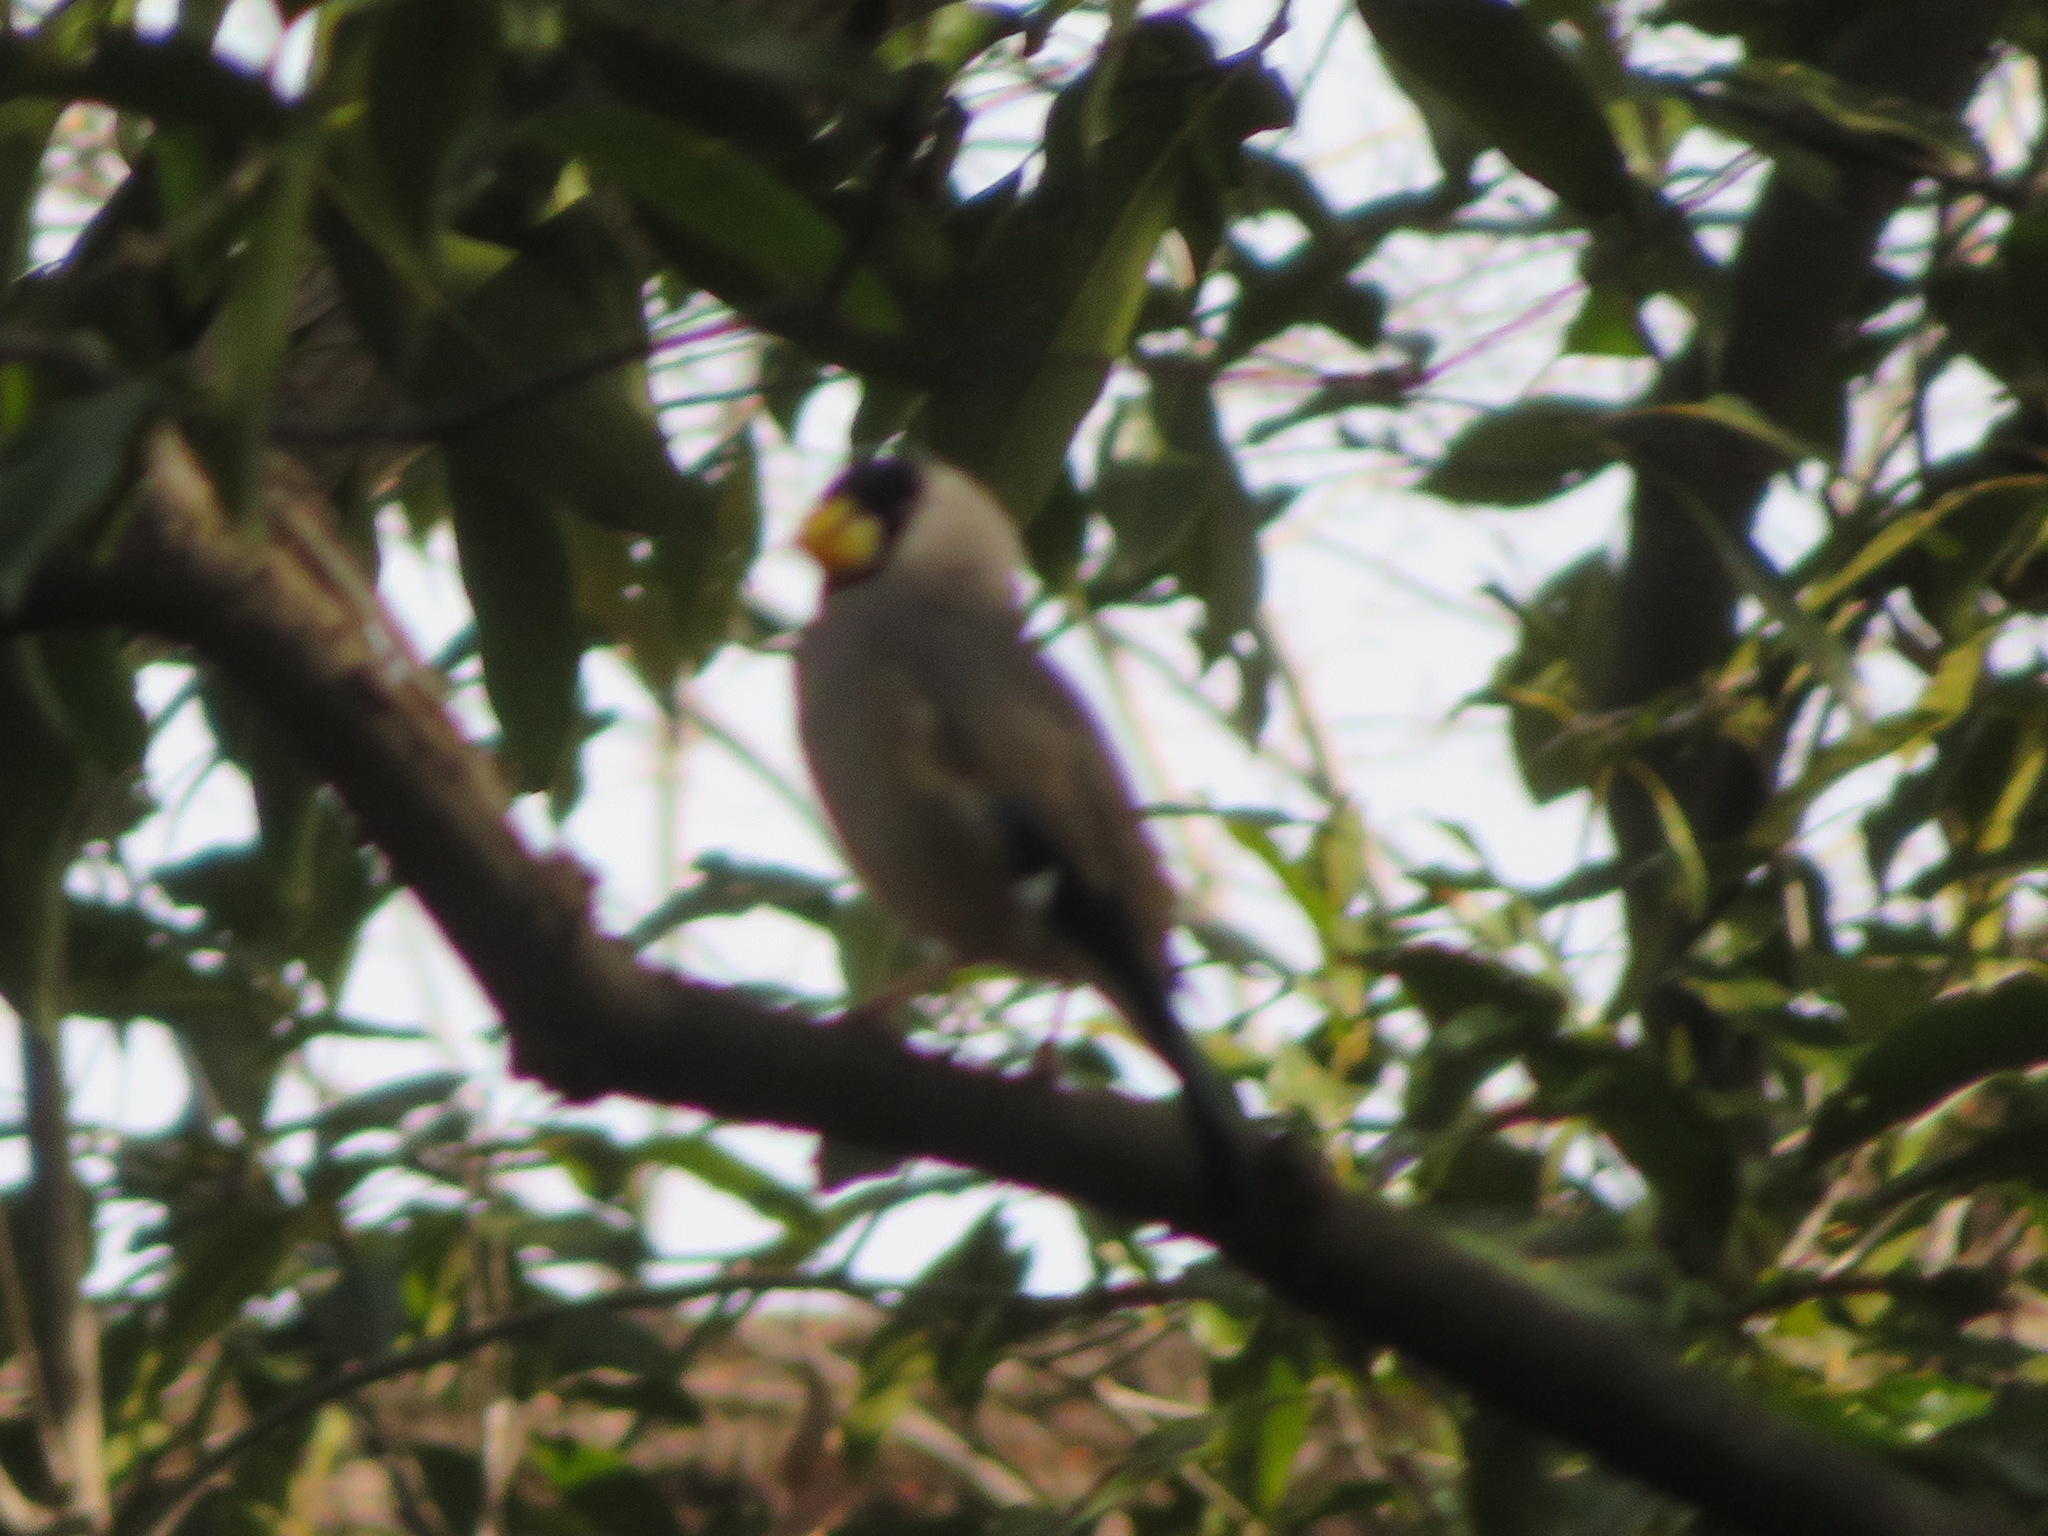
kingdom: Animalia
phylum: Chordata
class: Aves
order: Passeriformes
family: Fringillidae
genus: Eophona
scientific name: Eophona personata
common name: Japanese grosbeak
